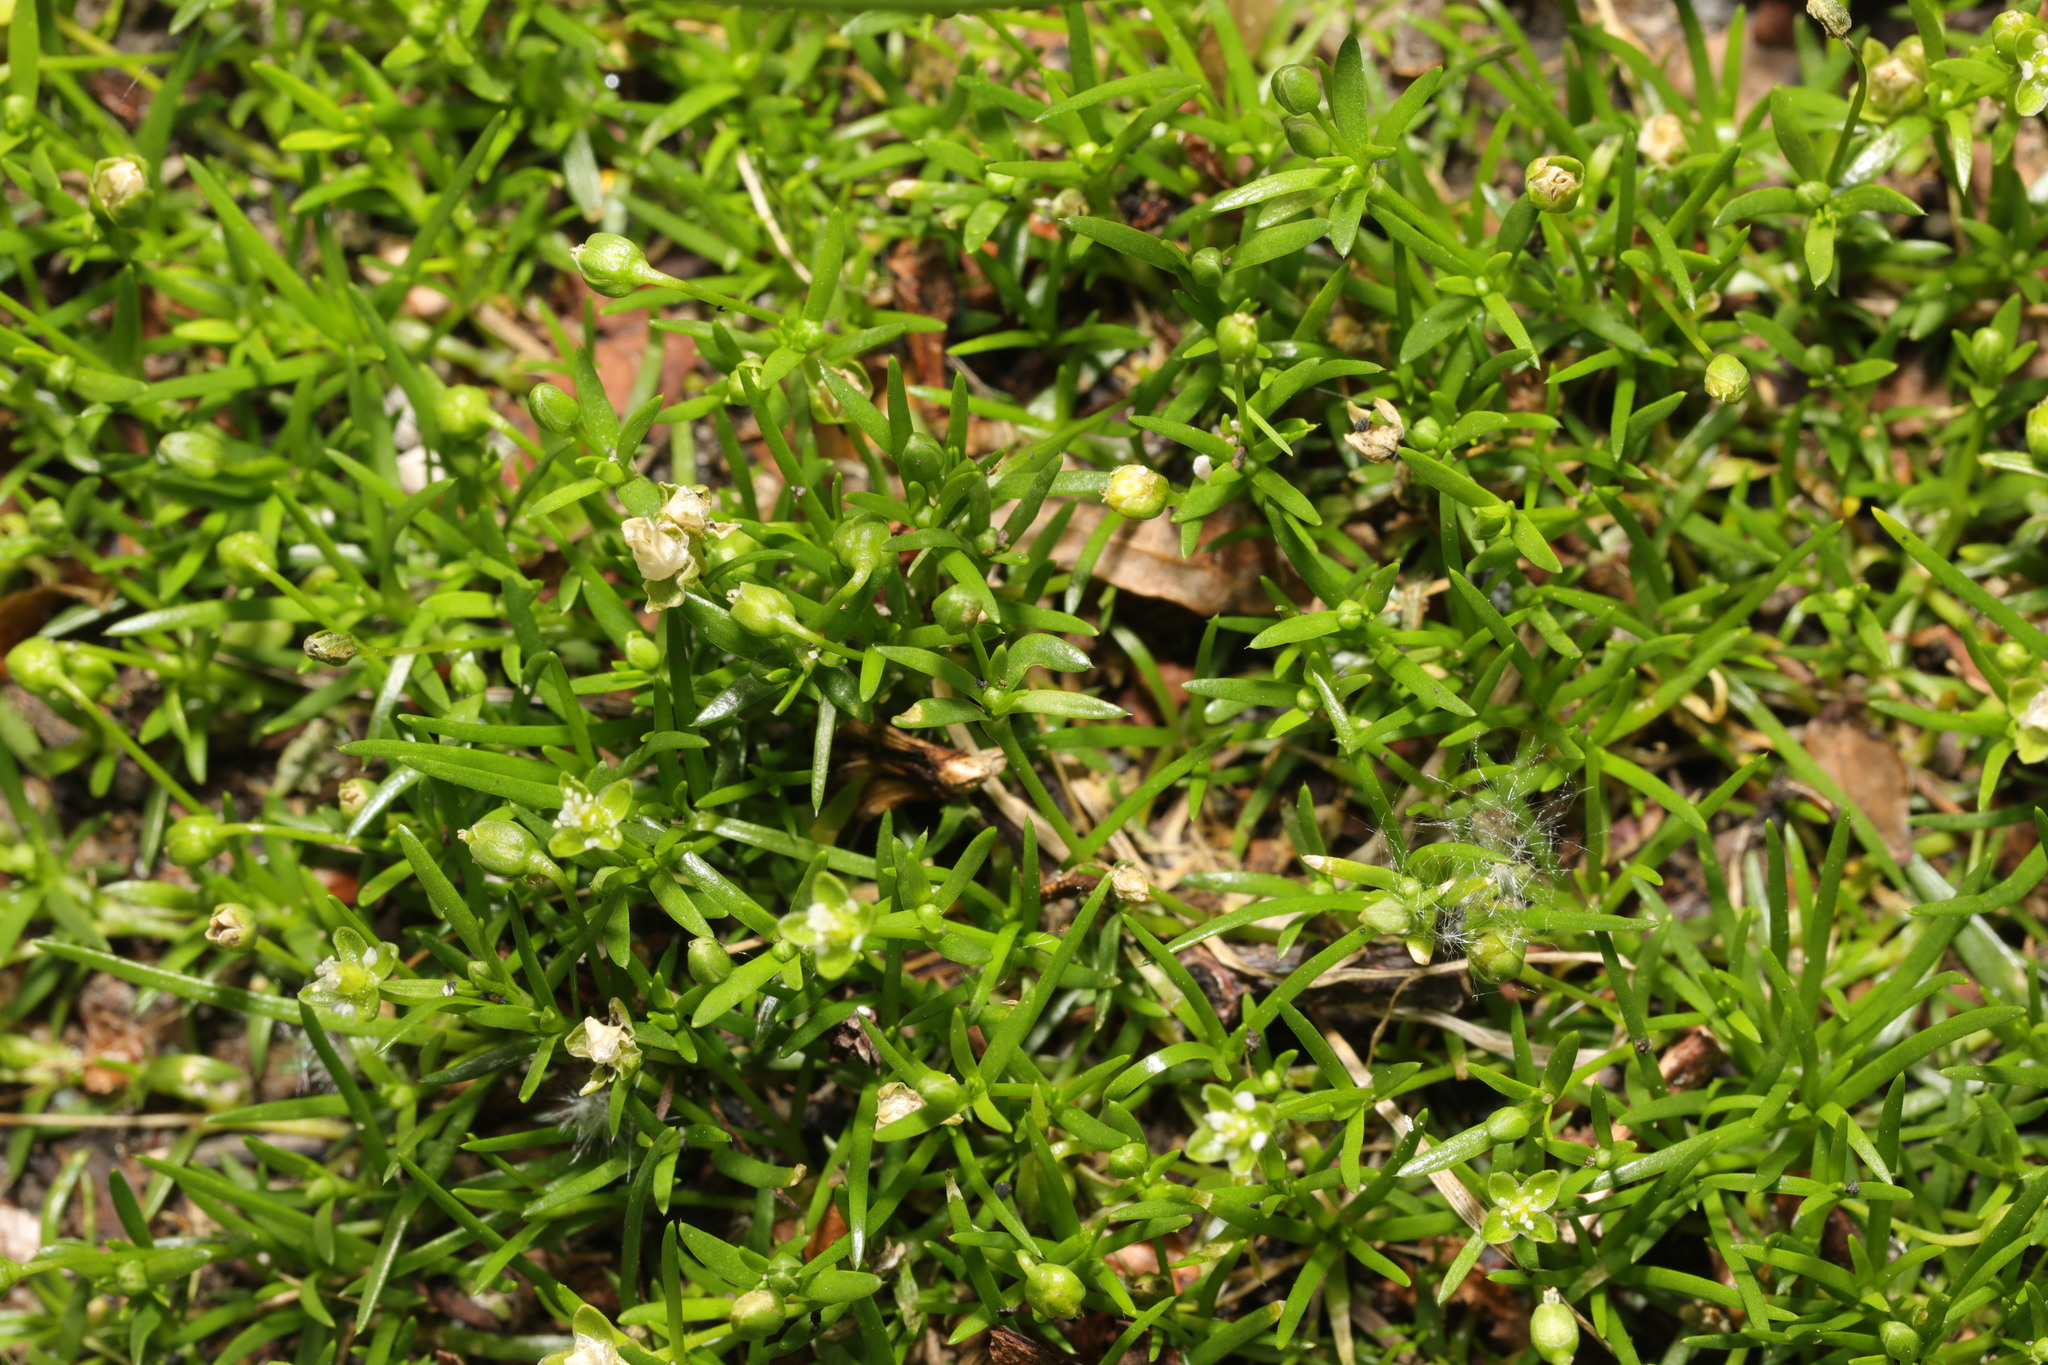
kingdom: Plantae
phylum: Tracheophyta
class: Magnoliopsida
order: Caryophyllales
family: Caryophyllaceae
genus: Sagina
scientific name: Sagina procumbens
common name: Procumbent pearlwort
